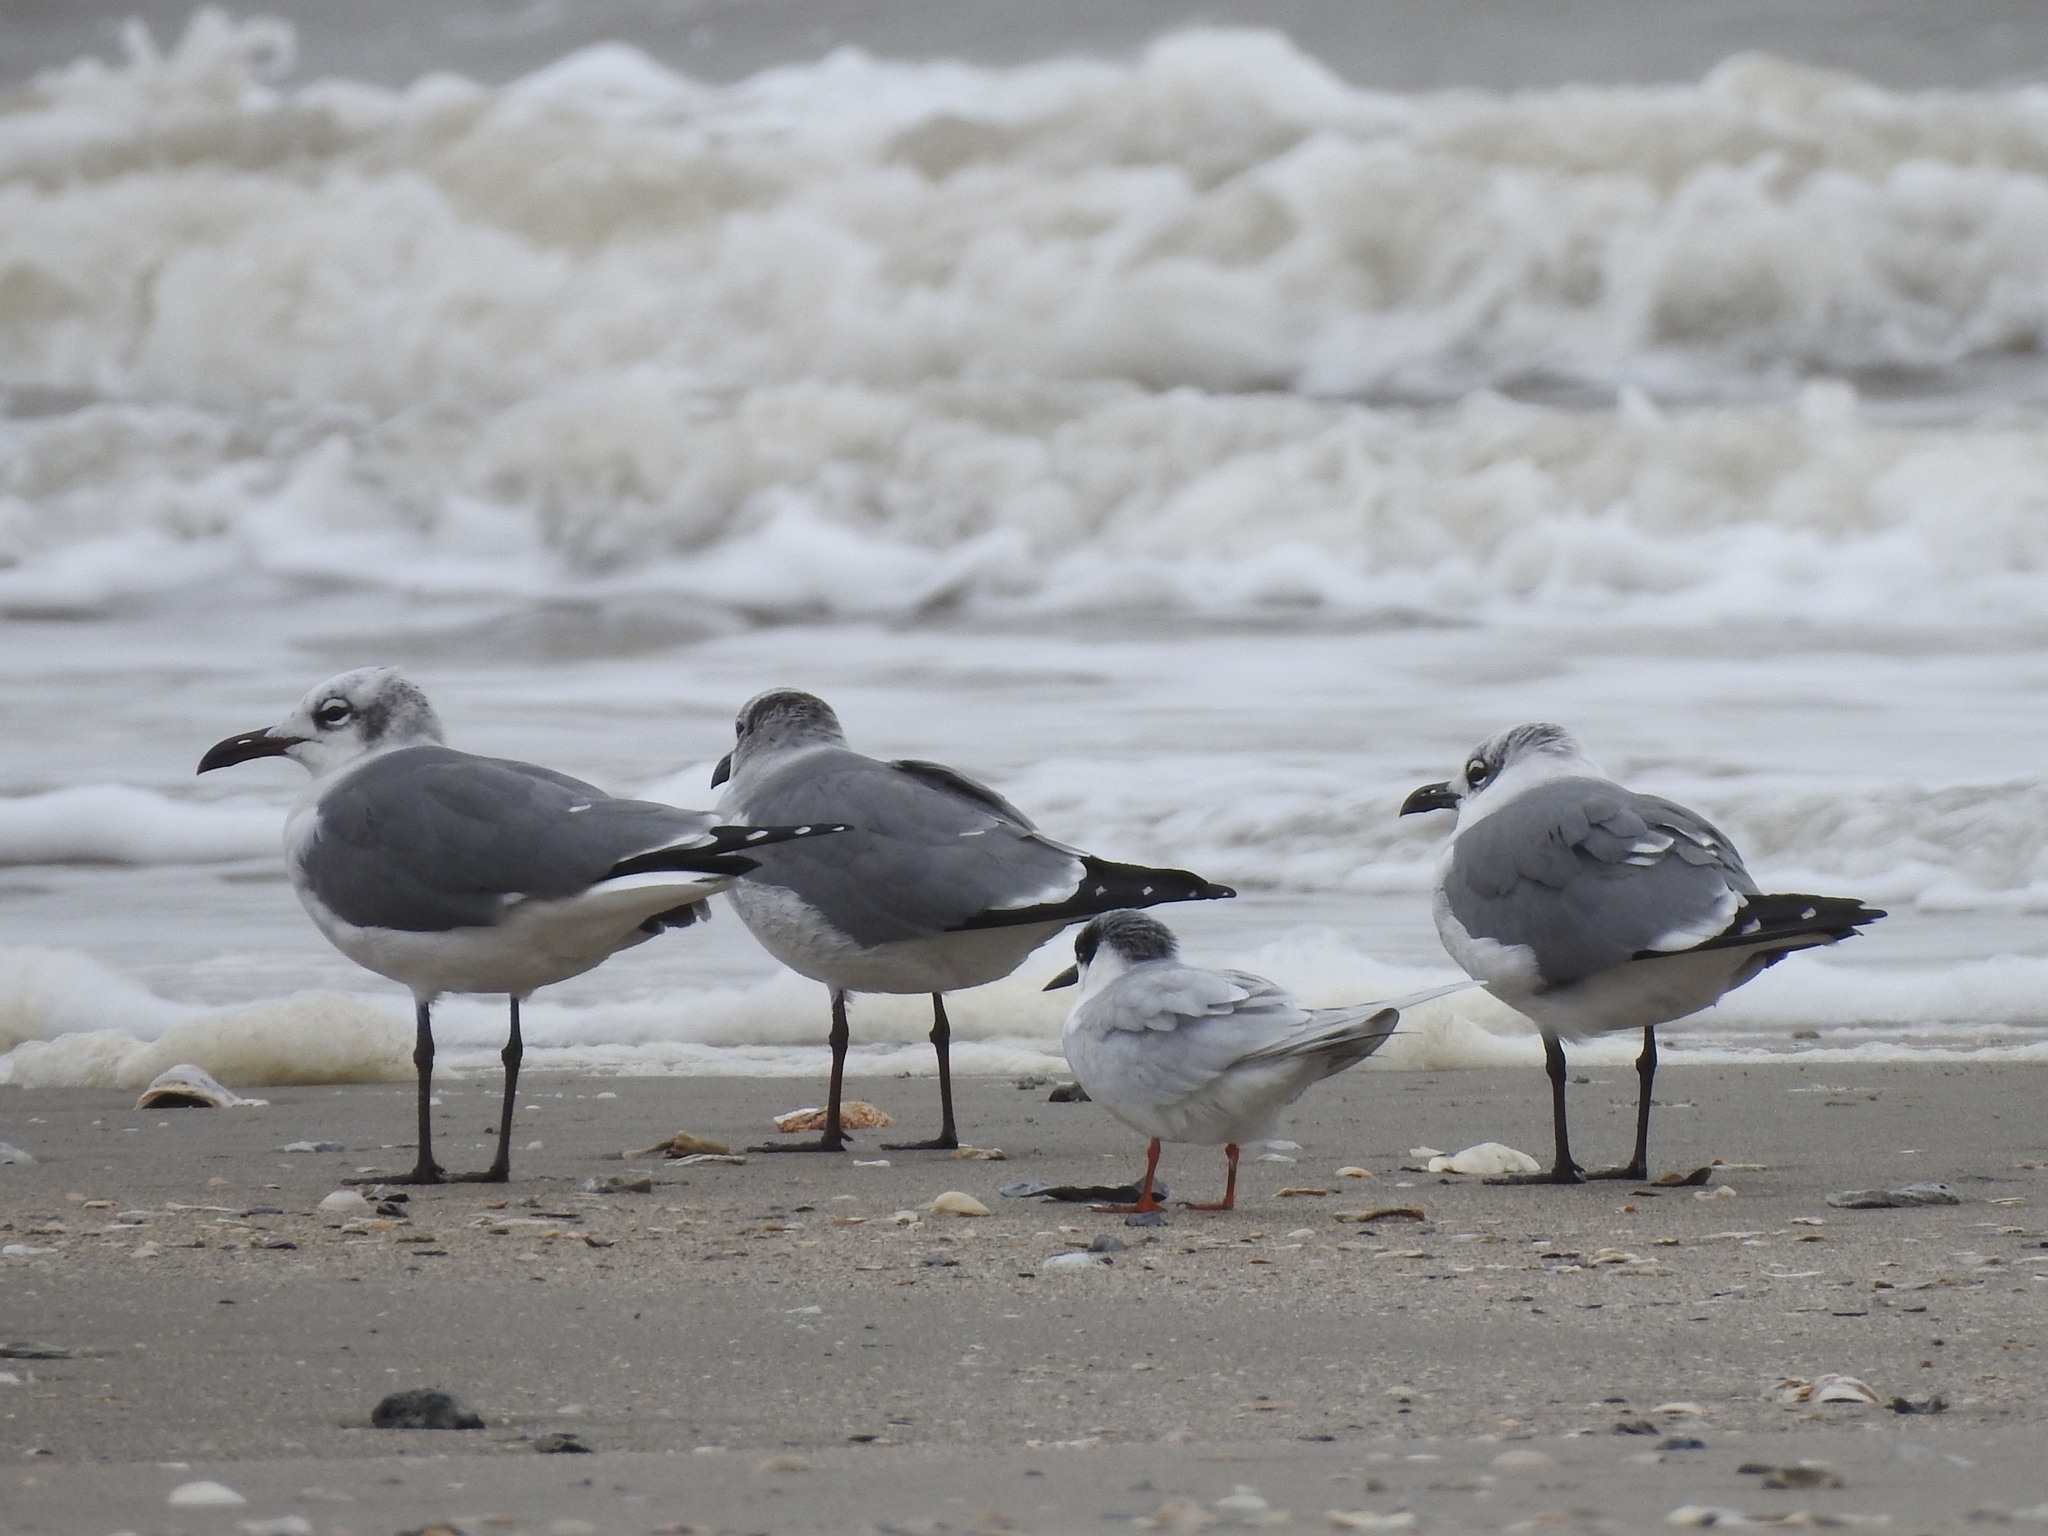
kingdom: Animalia
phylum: Chordata
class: Aves
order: Charadriiformes
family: Laridae
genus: Leucophaeus
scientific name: Leucophaeus atricilla
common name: Laughing gull
